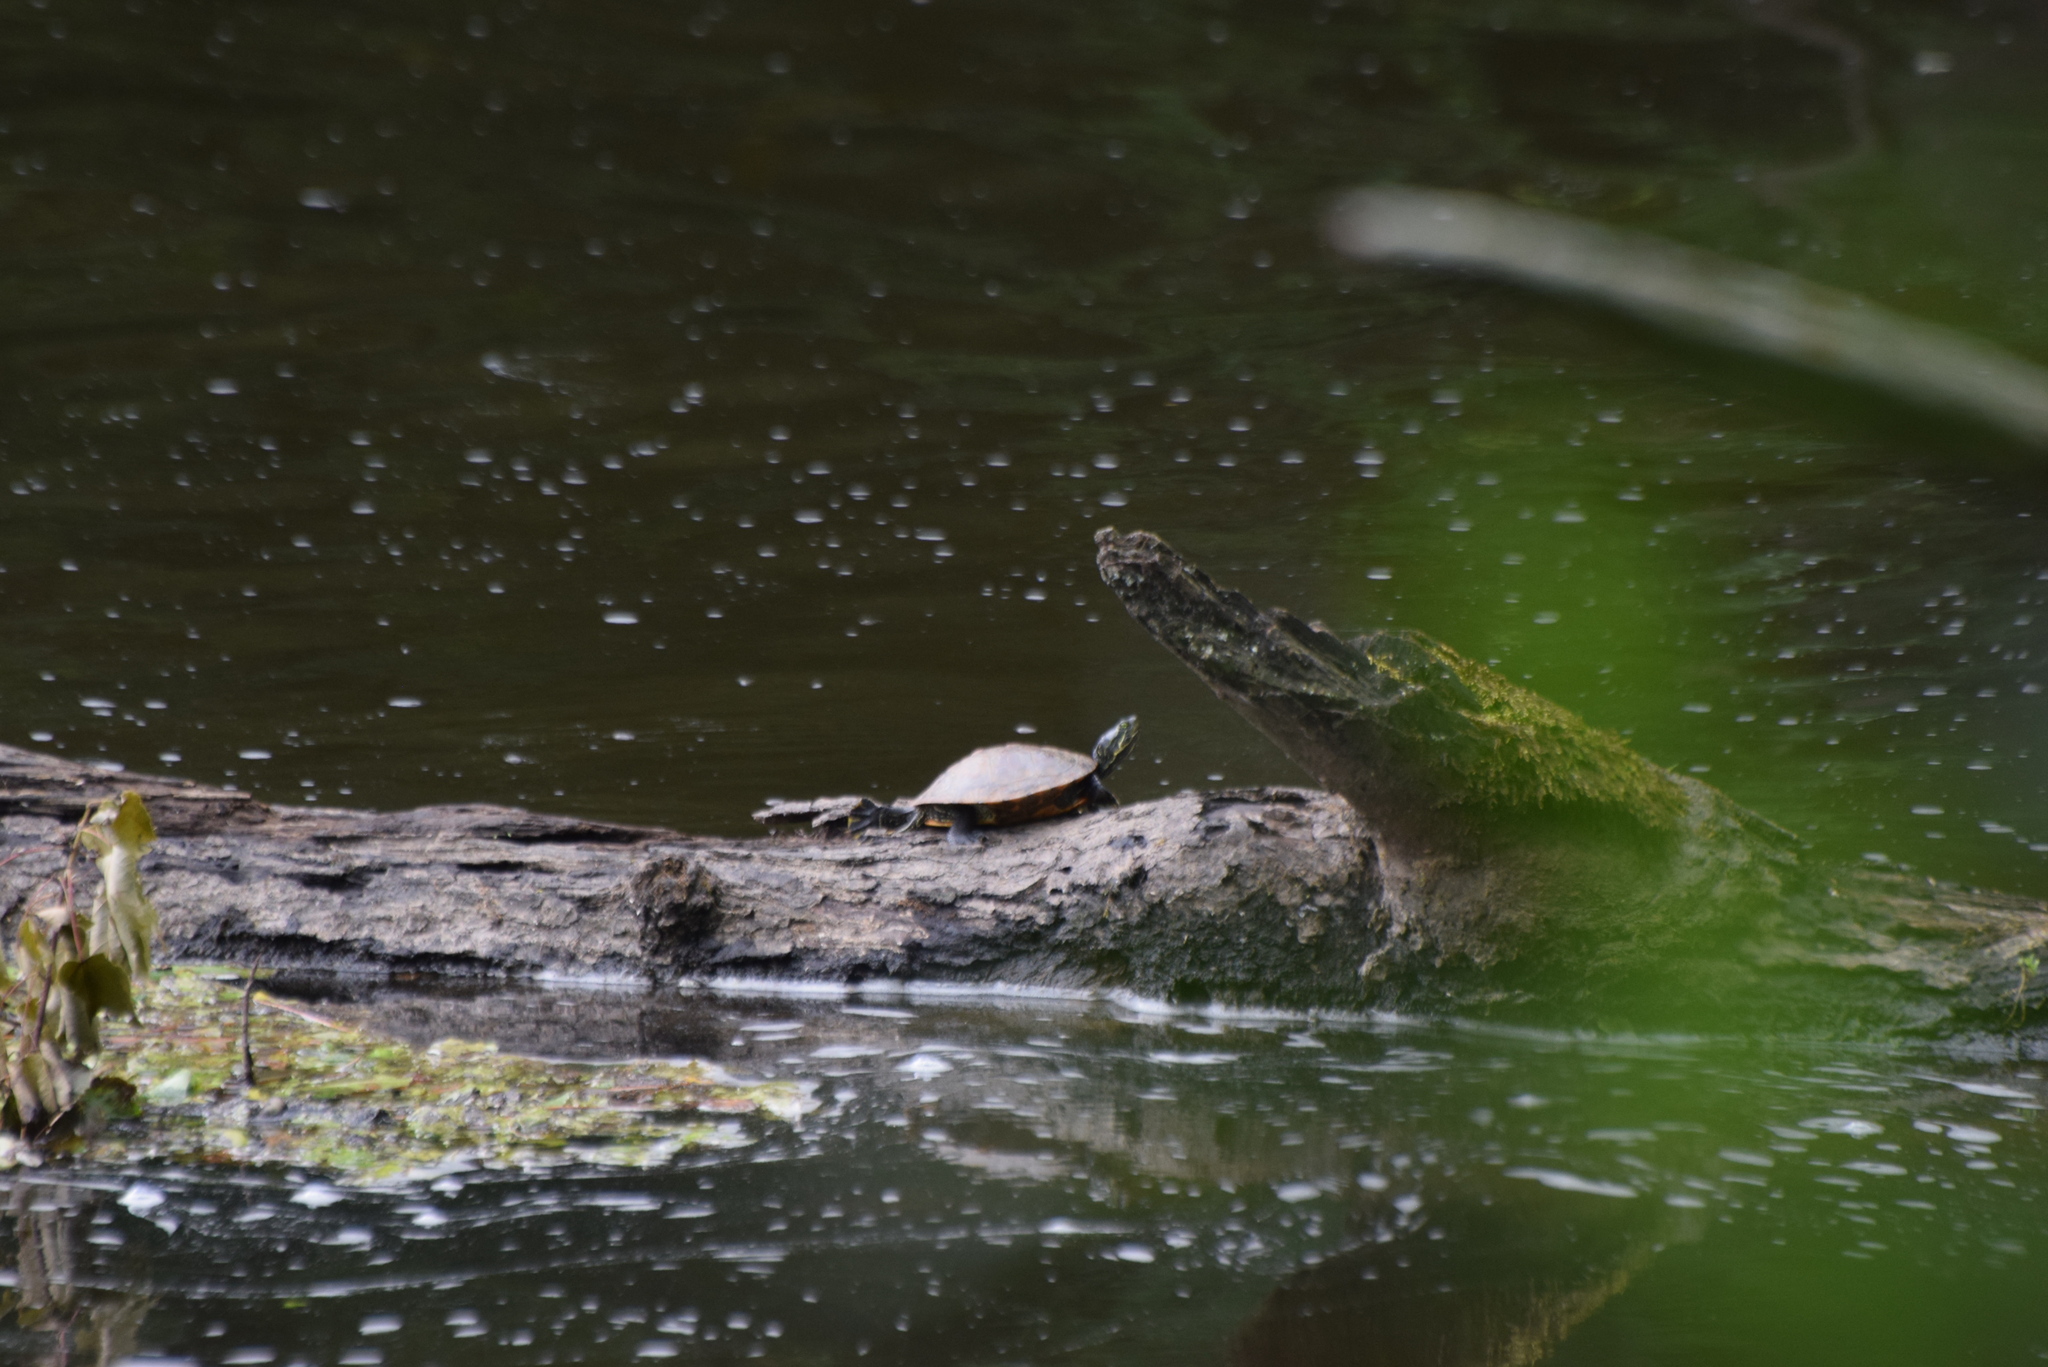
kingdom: Animalia
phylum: Chordata
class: Testudines
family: Emydidae
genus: Pseudemys
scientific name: Pseudemys rubriventris
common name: American red-bellied turtle
